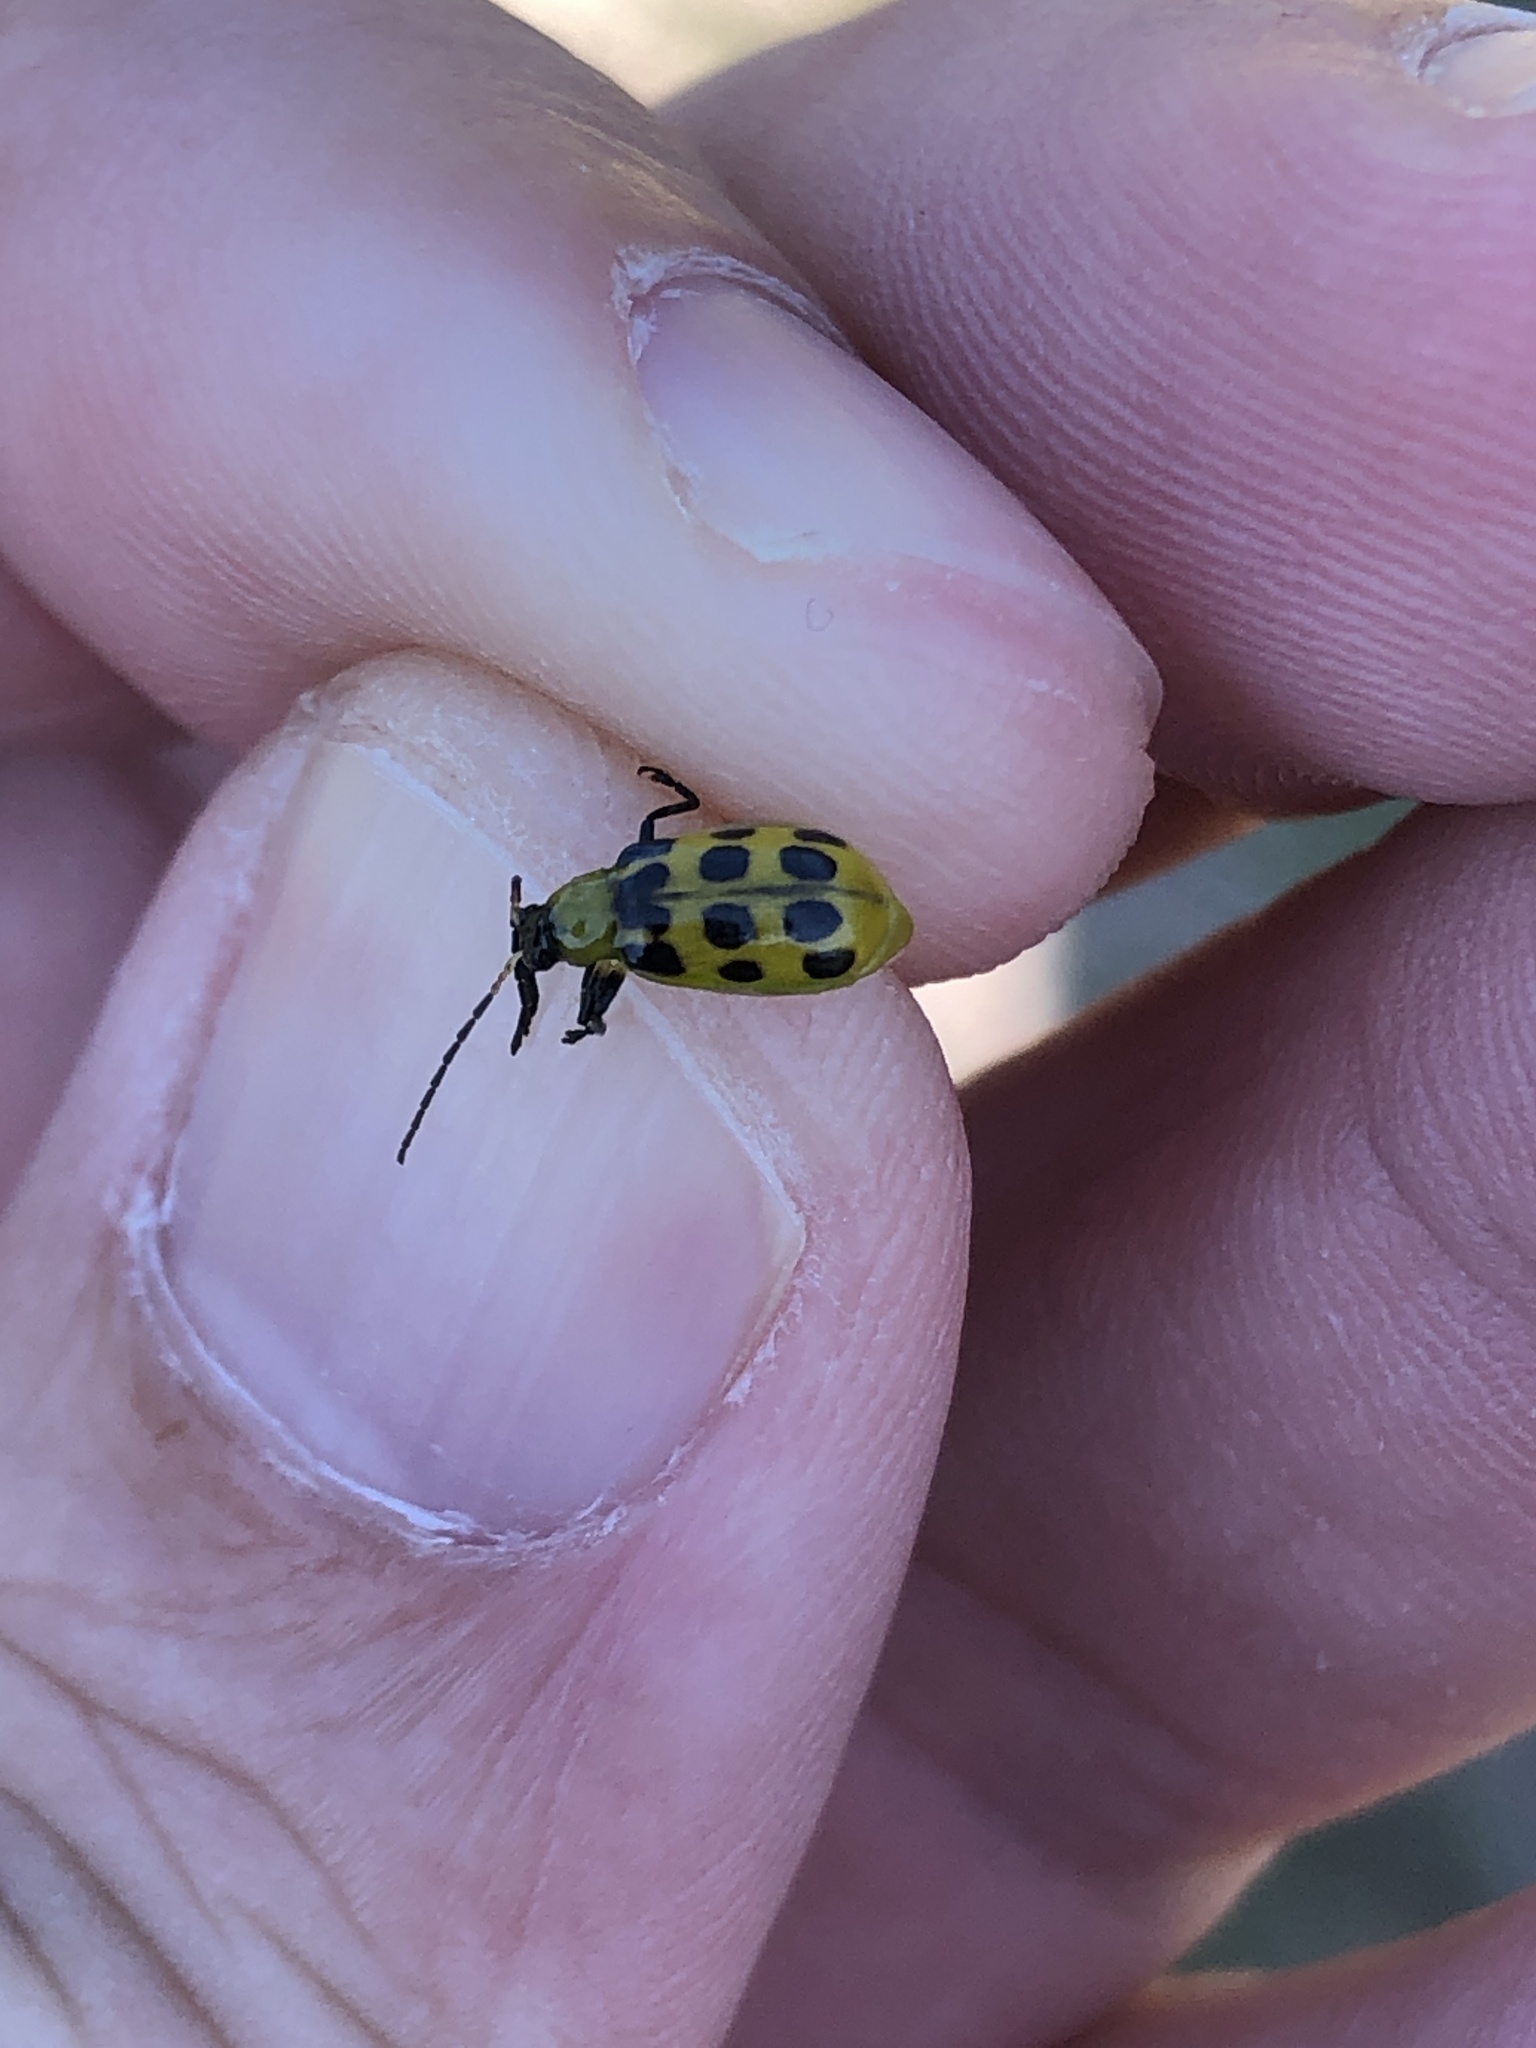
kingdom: Animalia
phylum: Arthropoda
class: Insecta
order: Coleoptera
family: Chrysomelidae
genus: Diabrotica
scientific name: Diabrotica undecimpunctata
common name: Spotted cucumber beetle
